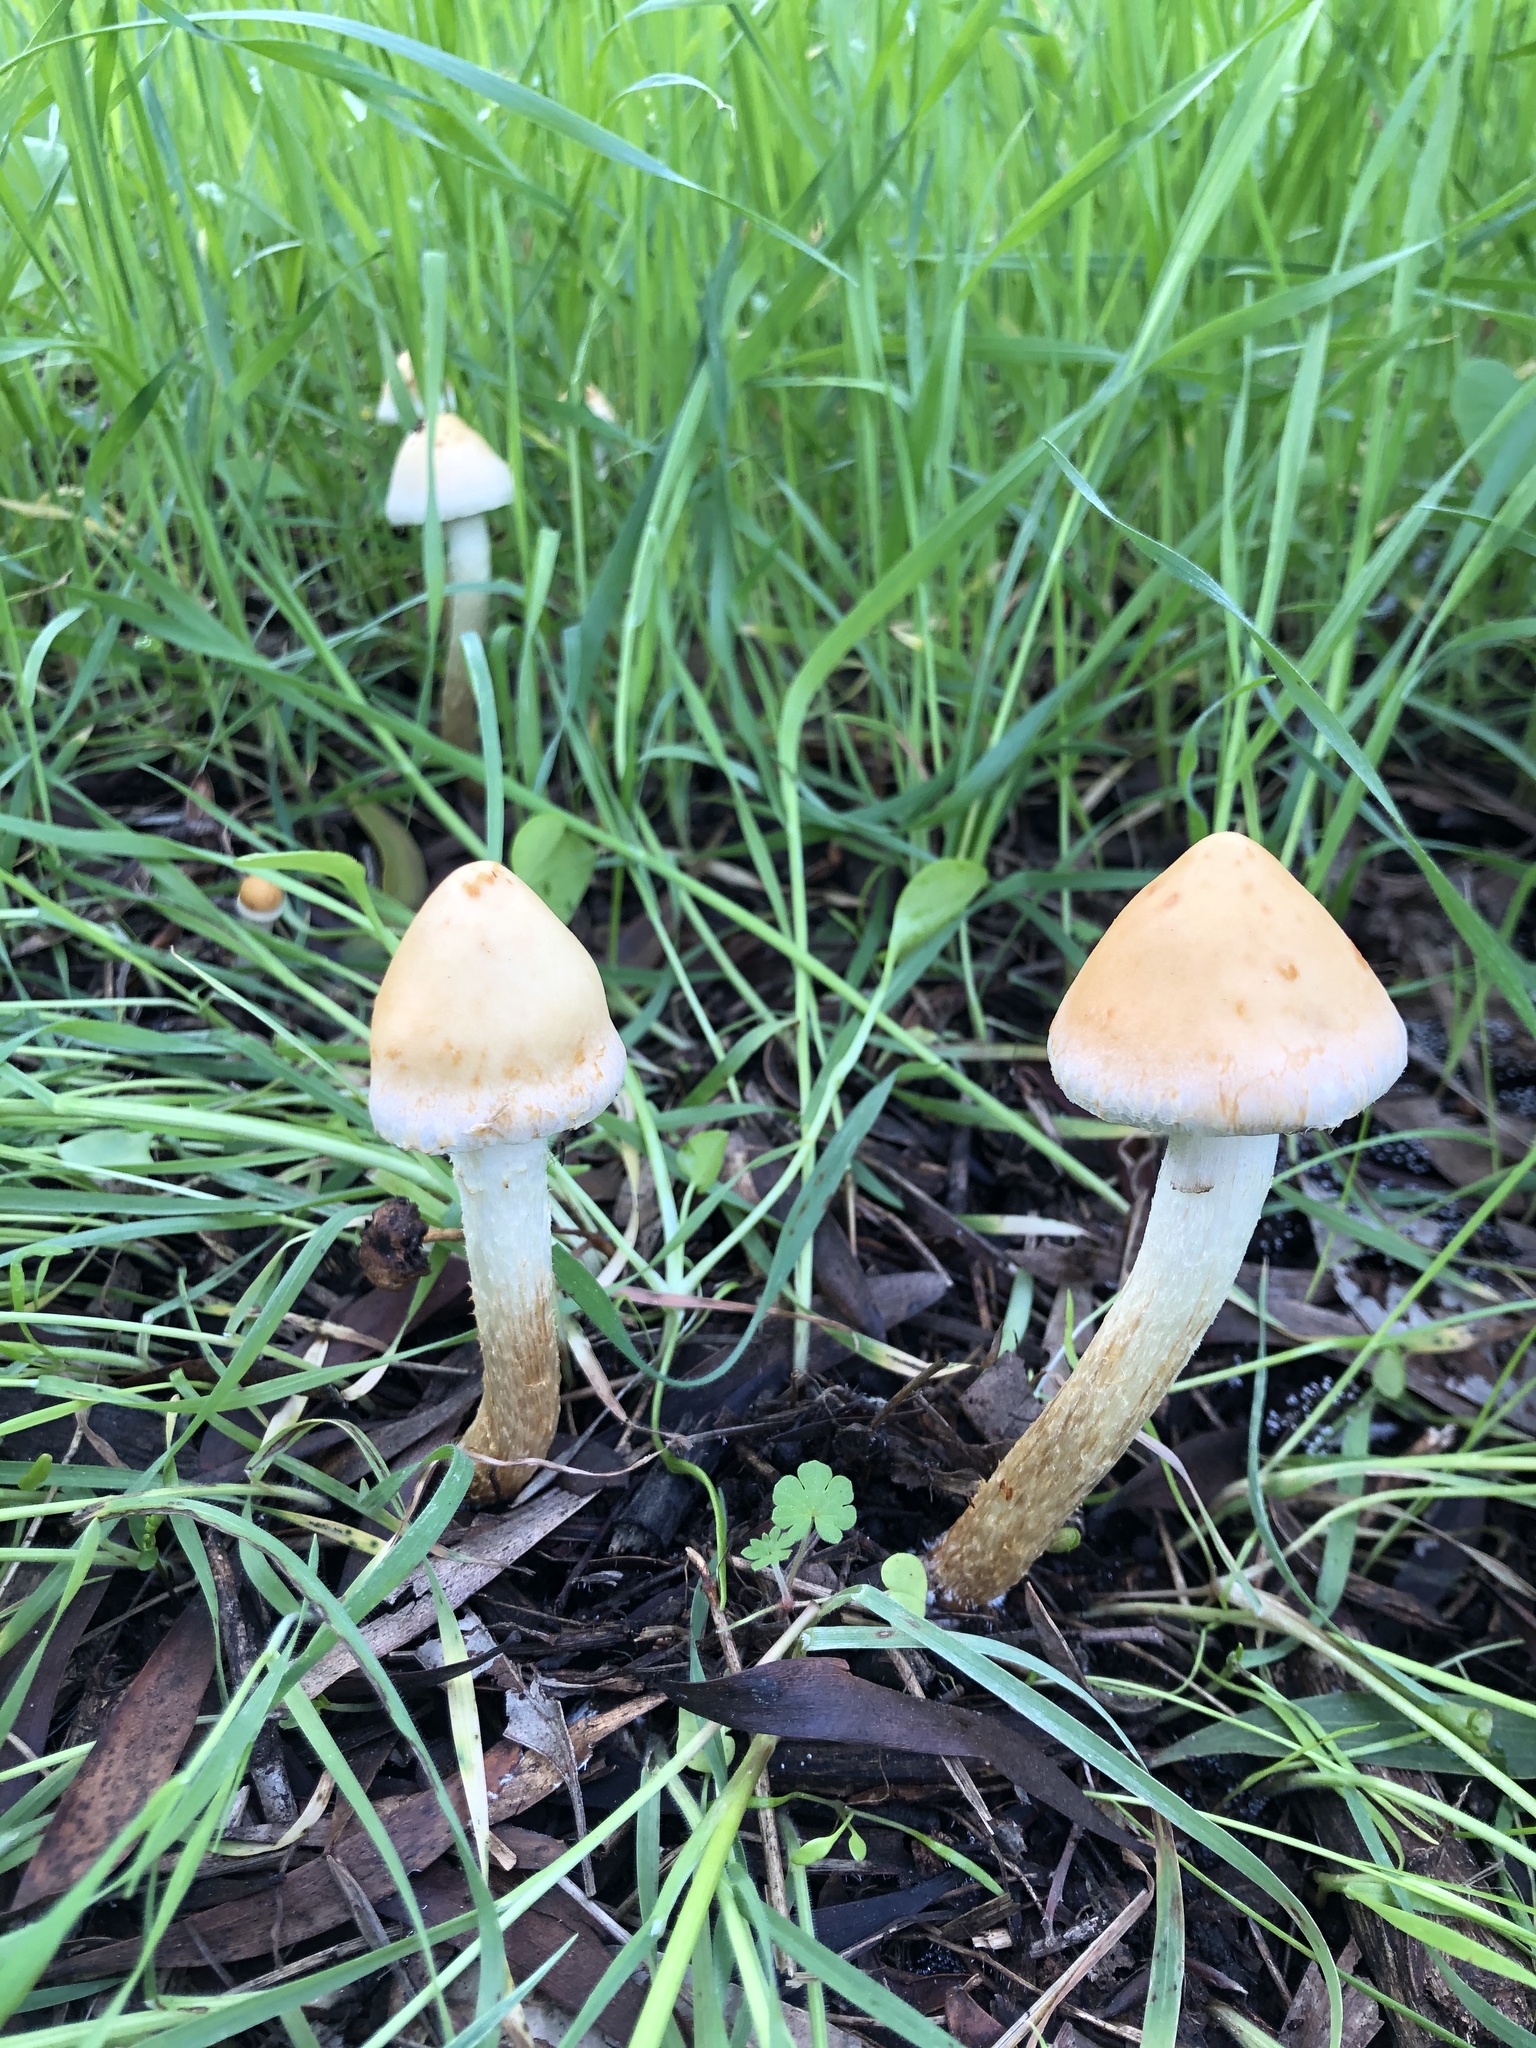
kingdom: Fungi
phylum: Basidiomycota
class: Agaricomycetes
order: Agaricales
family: Strophariaceae
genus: Leratiomyces
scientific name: Leratiomyces percevalii
